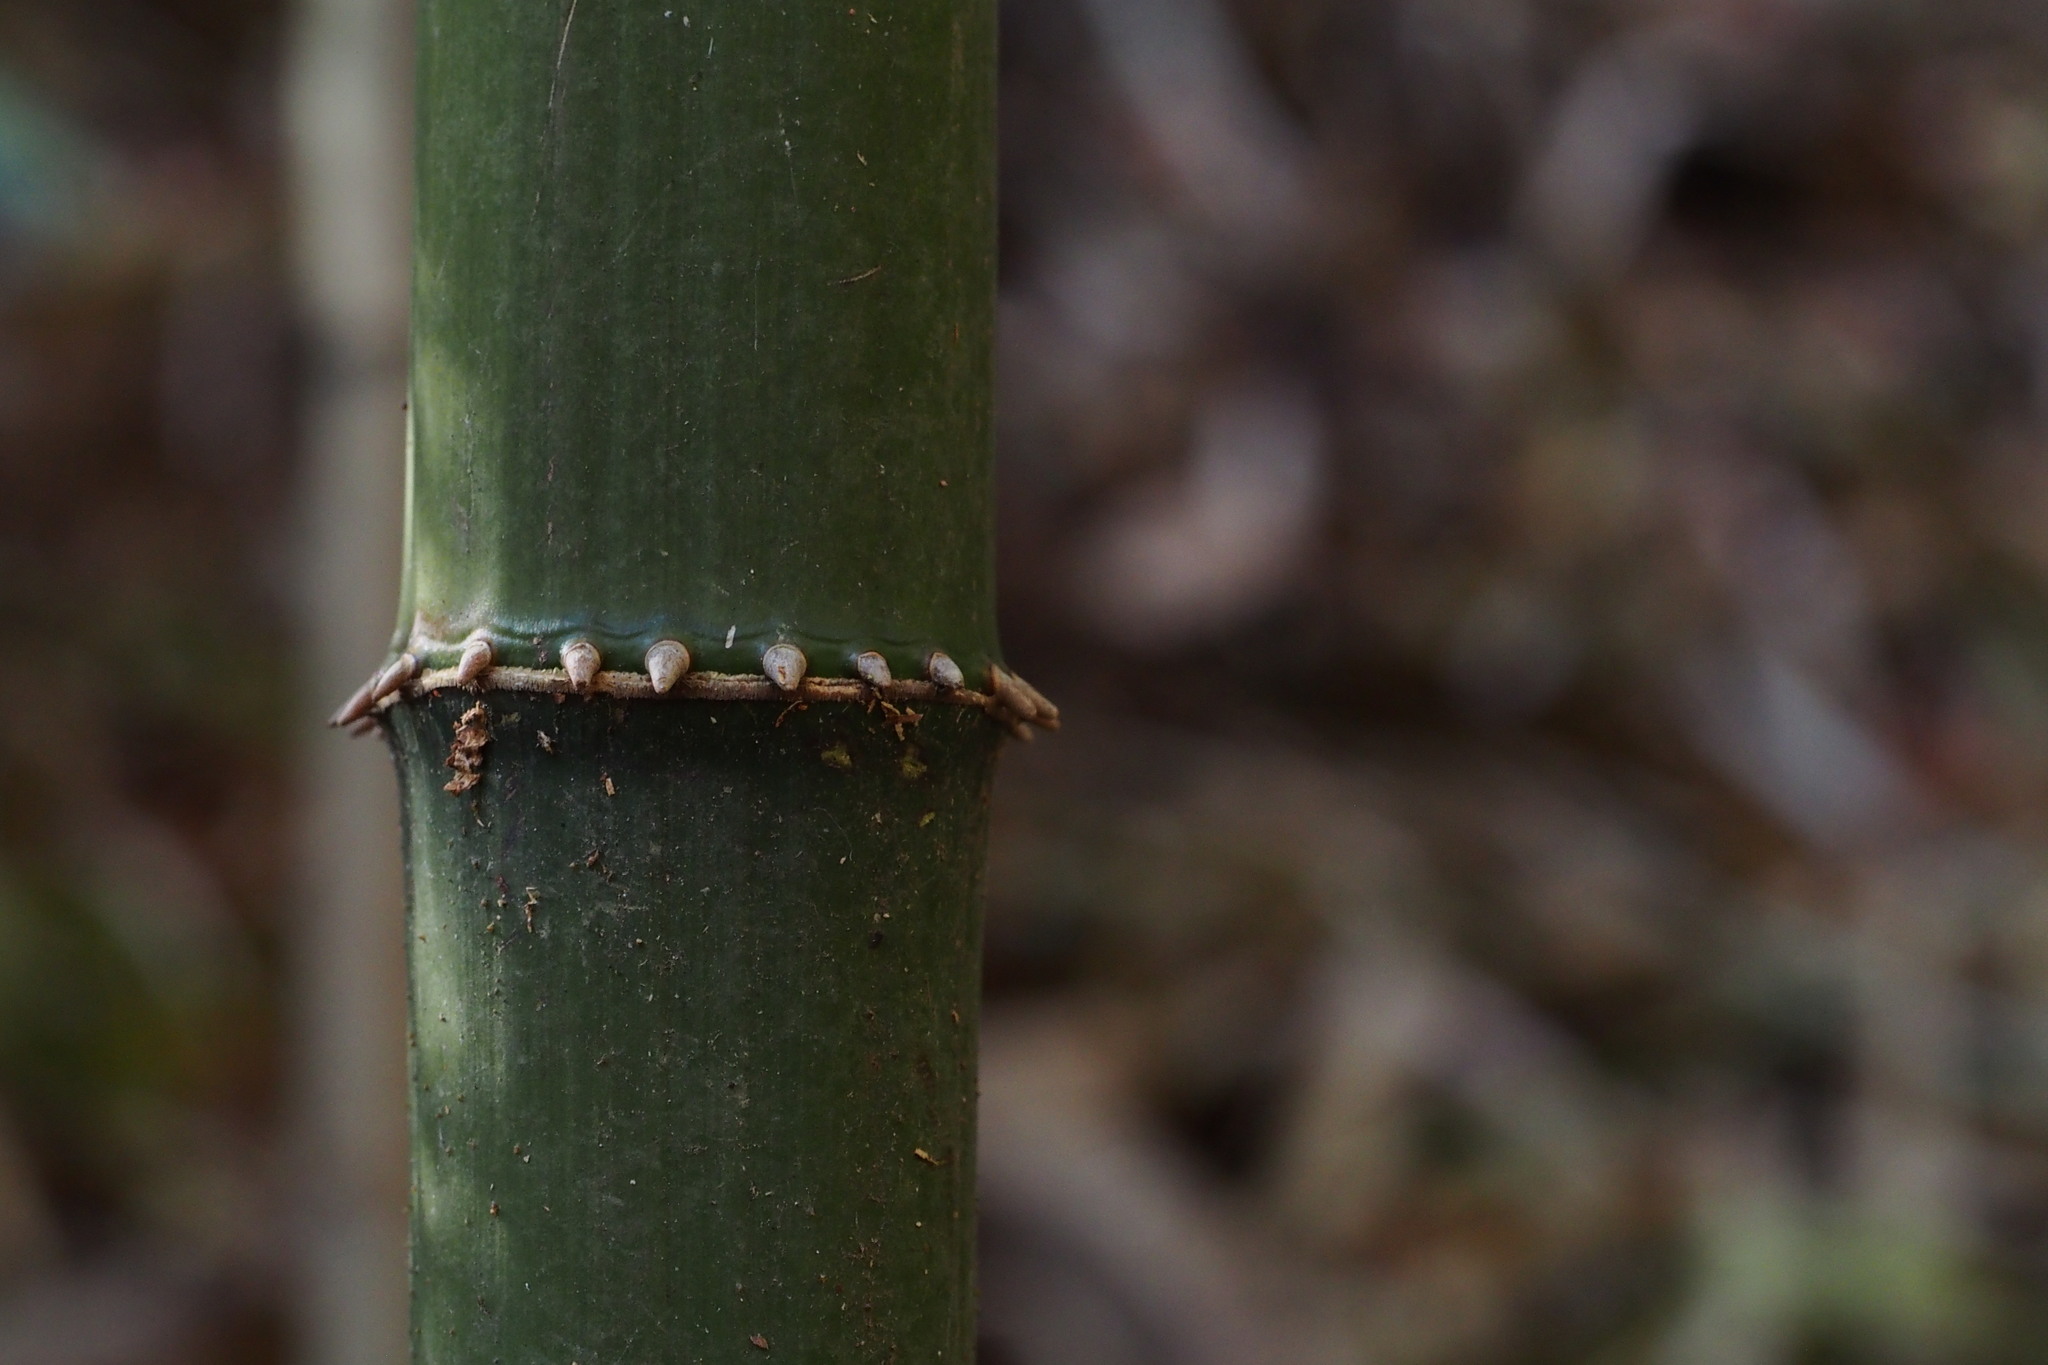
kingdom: Plantae
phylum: Tracheophyta
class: Liliopsida
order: Poales
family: Poaceae
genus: Chimonobambusa
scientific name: Chimonobambusa quadrangularis
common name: Square-stemmed bamboo
